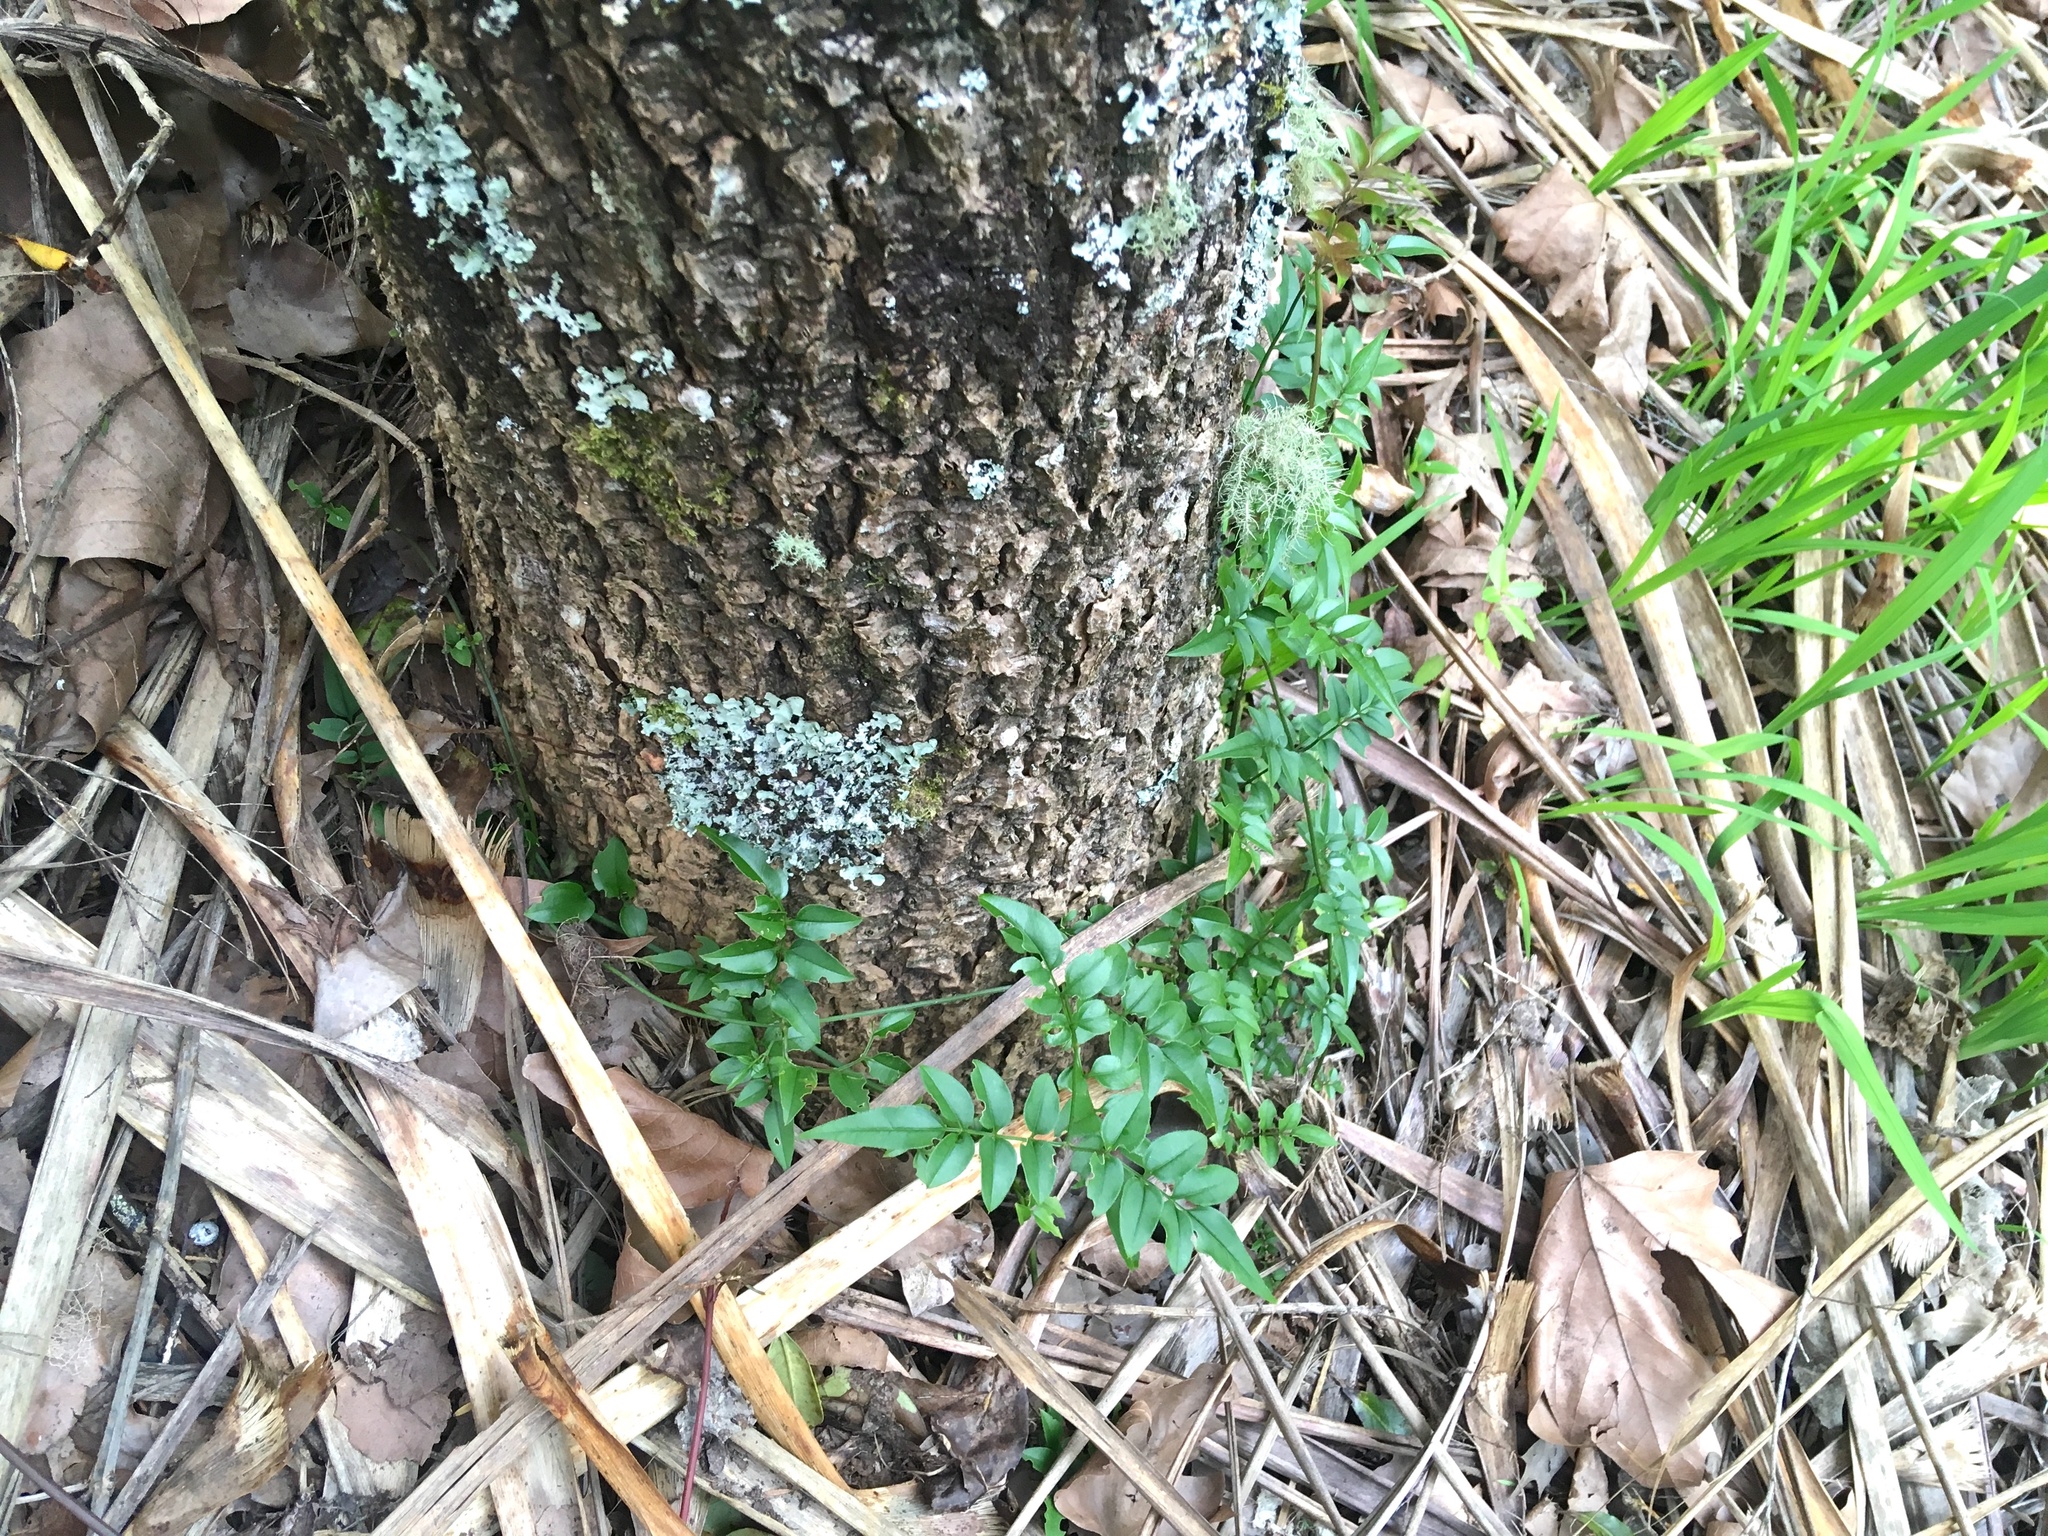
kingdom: Plantae
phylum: Tracheophyta
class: Magnoliopsida
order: Lamiales
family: Oleaceae
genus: Jasminum
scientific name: Jasminum polyanthum
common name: Pink jasmine
